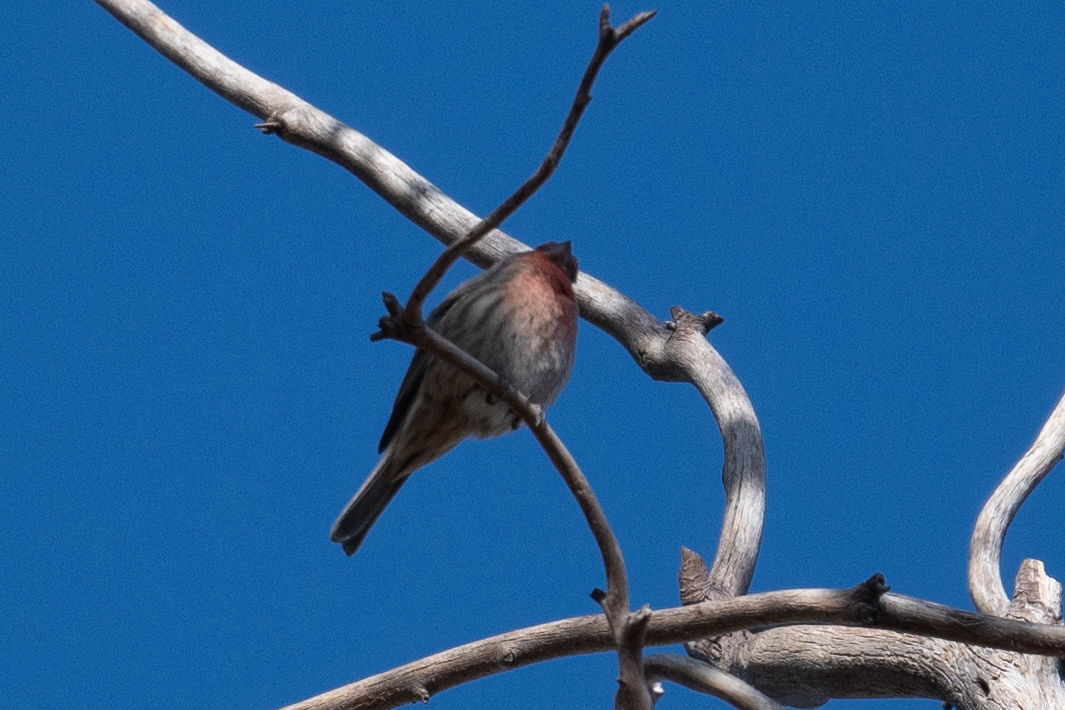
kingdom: Animalia
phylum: Chordata
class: Aves
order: Passeriformes
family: Fringillidae
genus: Haemorhous
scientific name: Haemorhous mexicanus
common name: House finch
